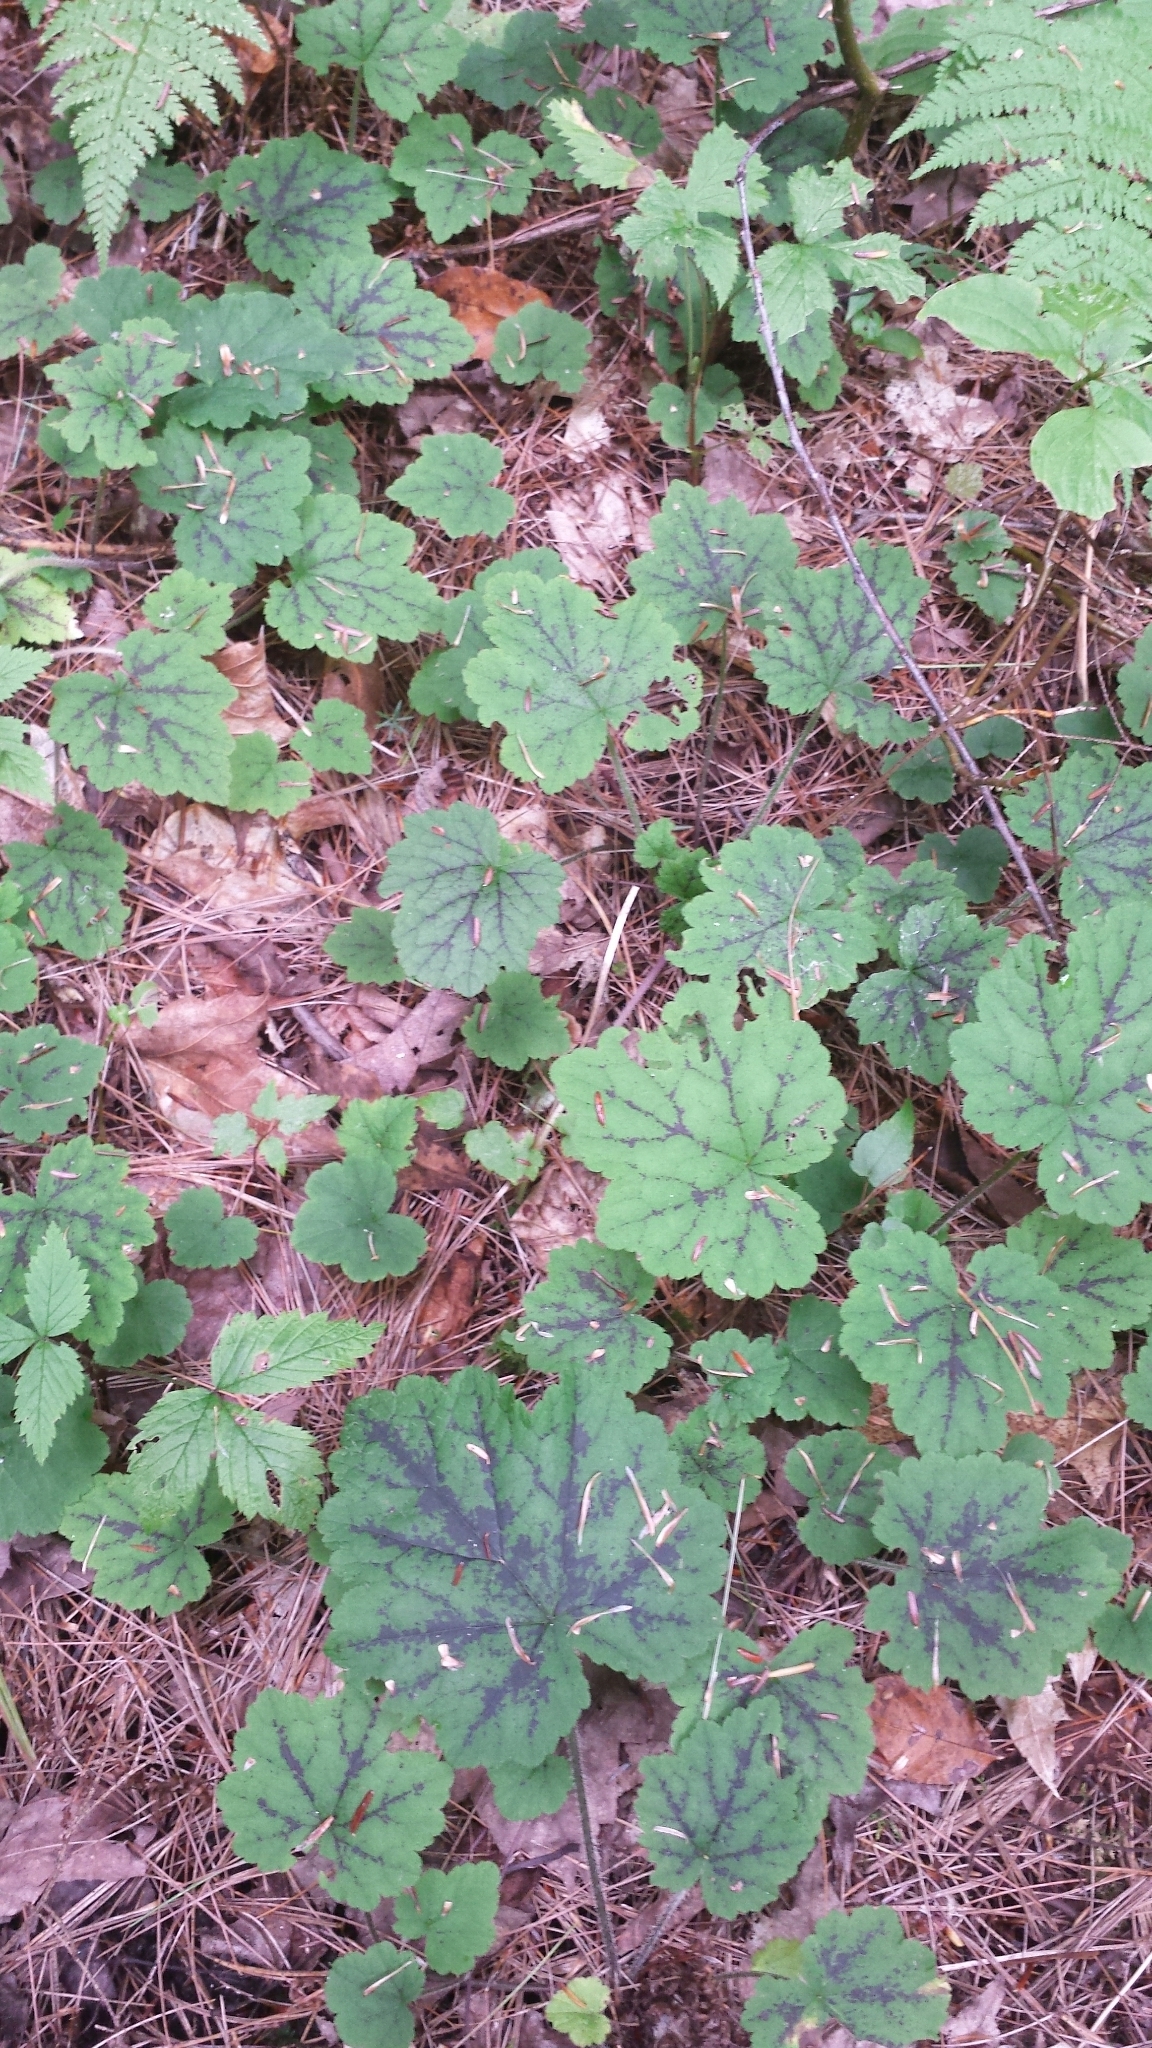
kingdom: Plantae
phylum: Tracheophyta
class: Magnoliopsida
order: Saxifragales
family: Saxifragaceae
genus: Tiarella
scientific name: Tiarella stolonifera
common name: Stoloniferous foamflower
